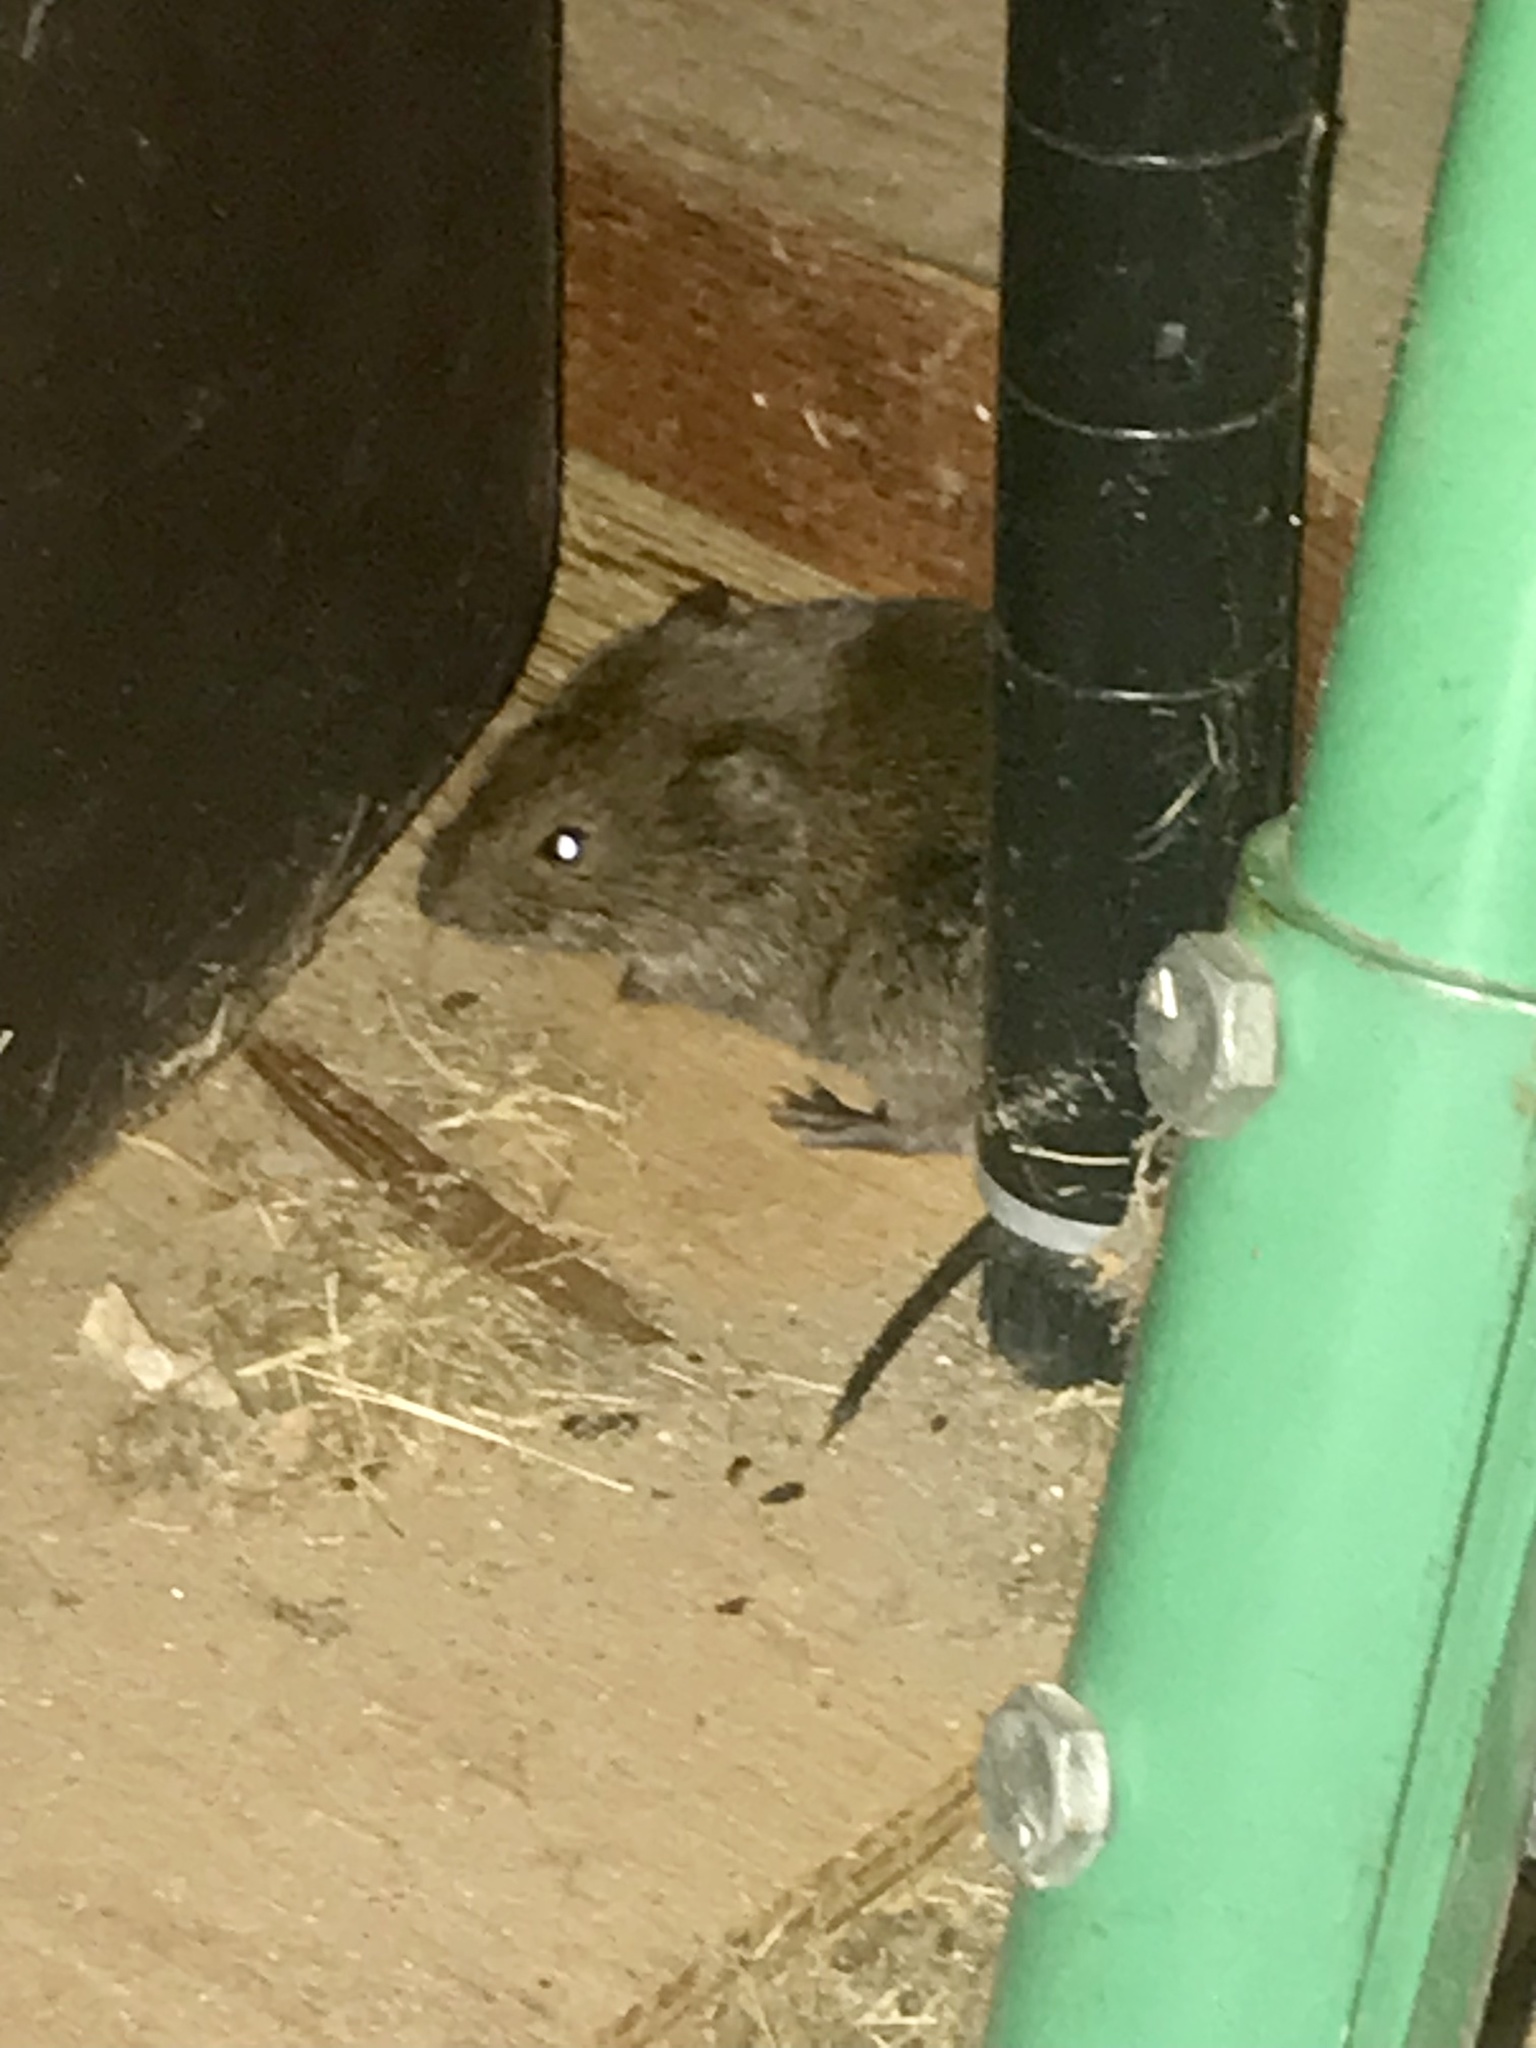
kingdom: Animalia
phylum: Chordata
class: Mammalia
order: Rodentia
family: Cricetidae
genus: Microtus
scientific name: Microtus pennsylvanicus
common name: Meadow vole
